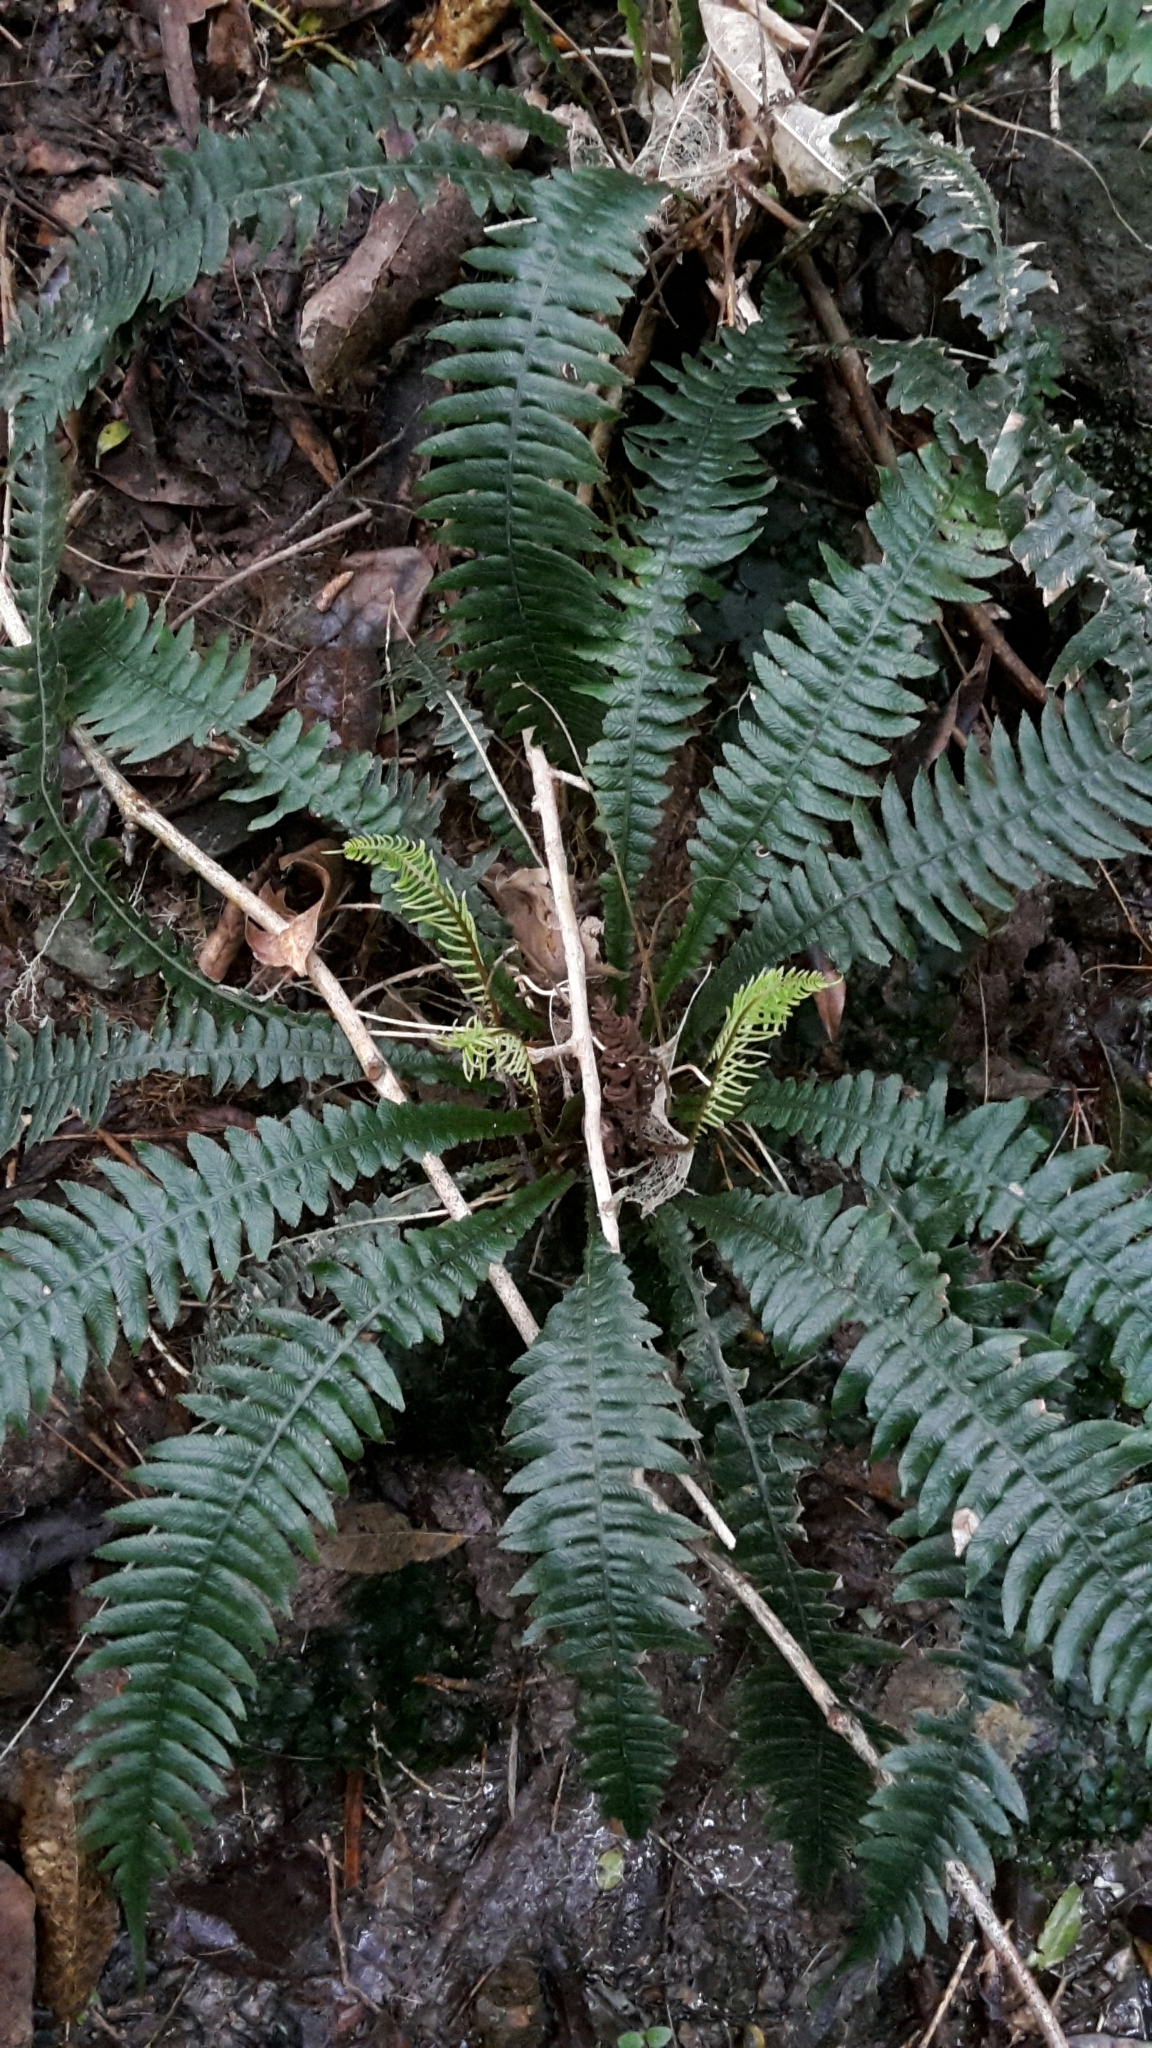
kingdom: Plantae
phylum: Tracheophyta
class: Polypodiopsida
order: Polypodiales
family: Blechnaceae
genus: Austroblechnum
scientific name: Austroblechnum lanceolatum
